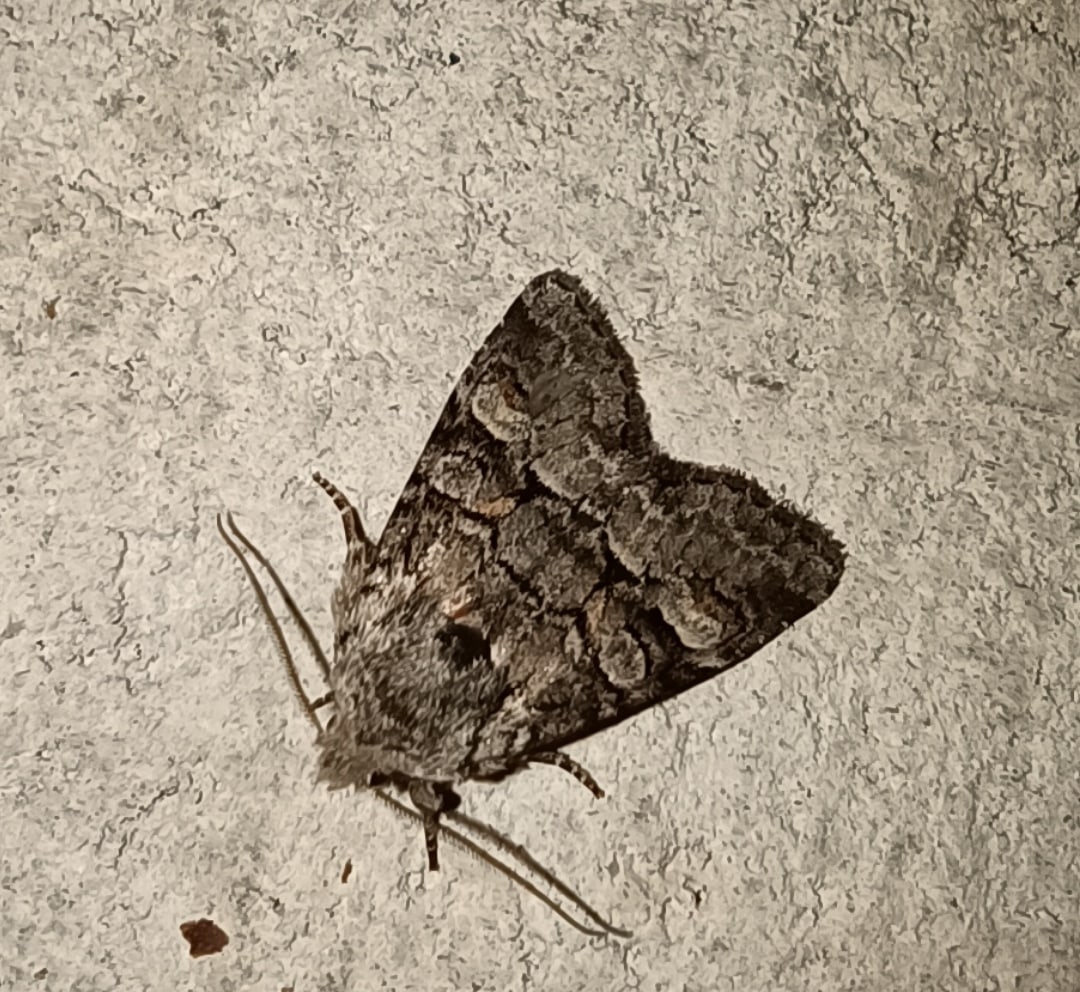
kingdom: Animalia
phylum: Arthropoda
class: Insecta
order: Lepidoptera
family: Noctuidae
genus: Brachylomia
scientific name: Brachylomia viminalis
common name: Minor shoulder-knot
